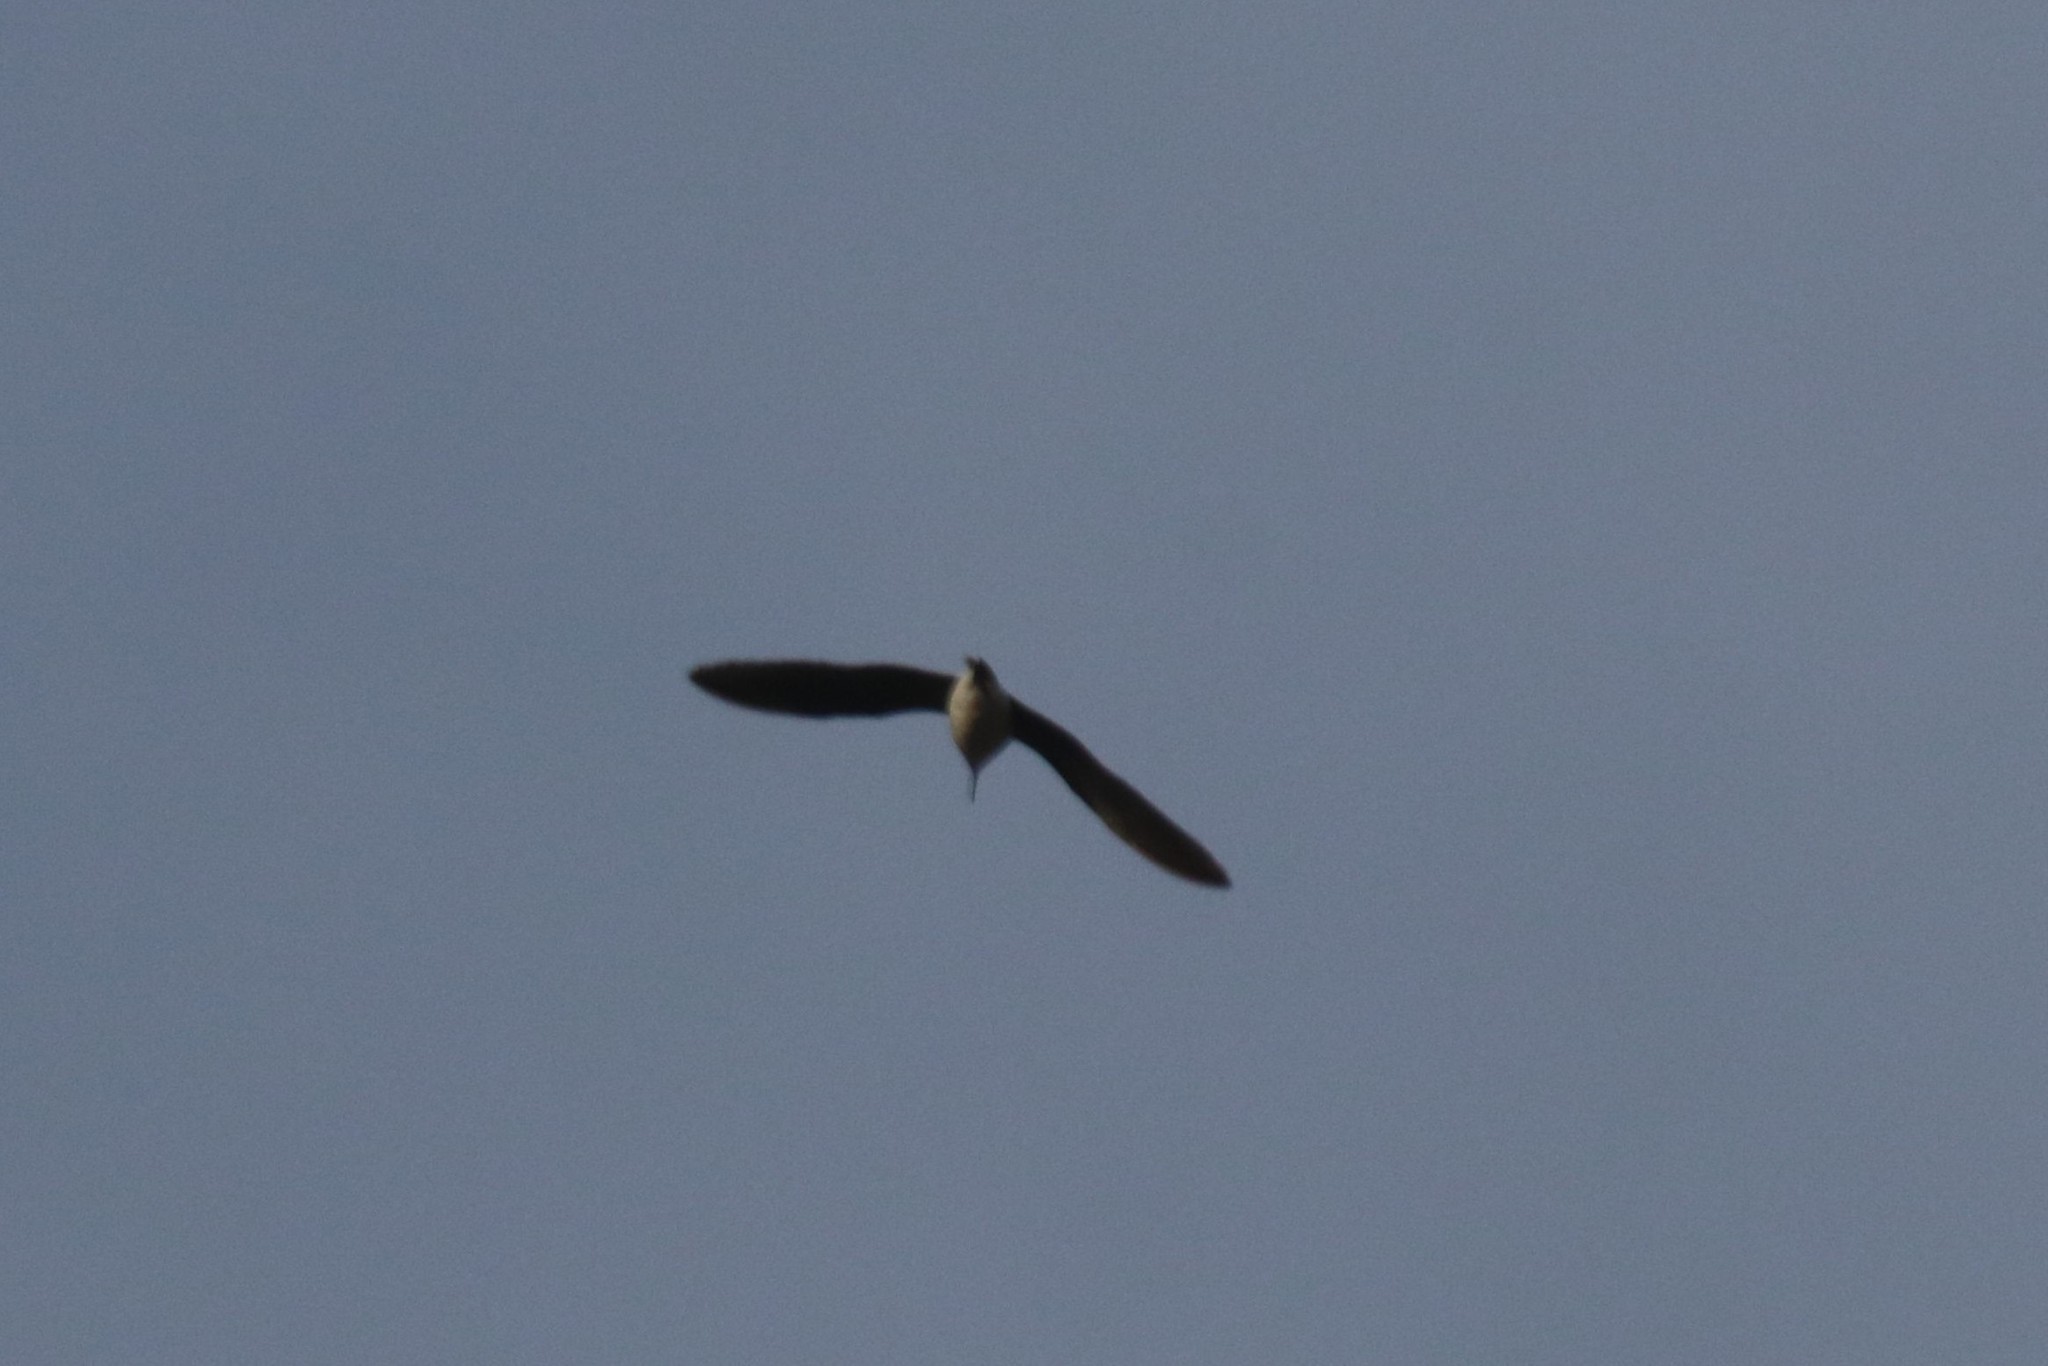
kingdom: Animalia
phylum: Chordata
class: Aves
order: Charadriiformes
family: Scolopacidae
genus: Tringa
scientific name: Tringa ochropus
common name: Green sandpiper
